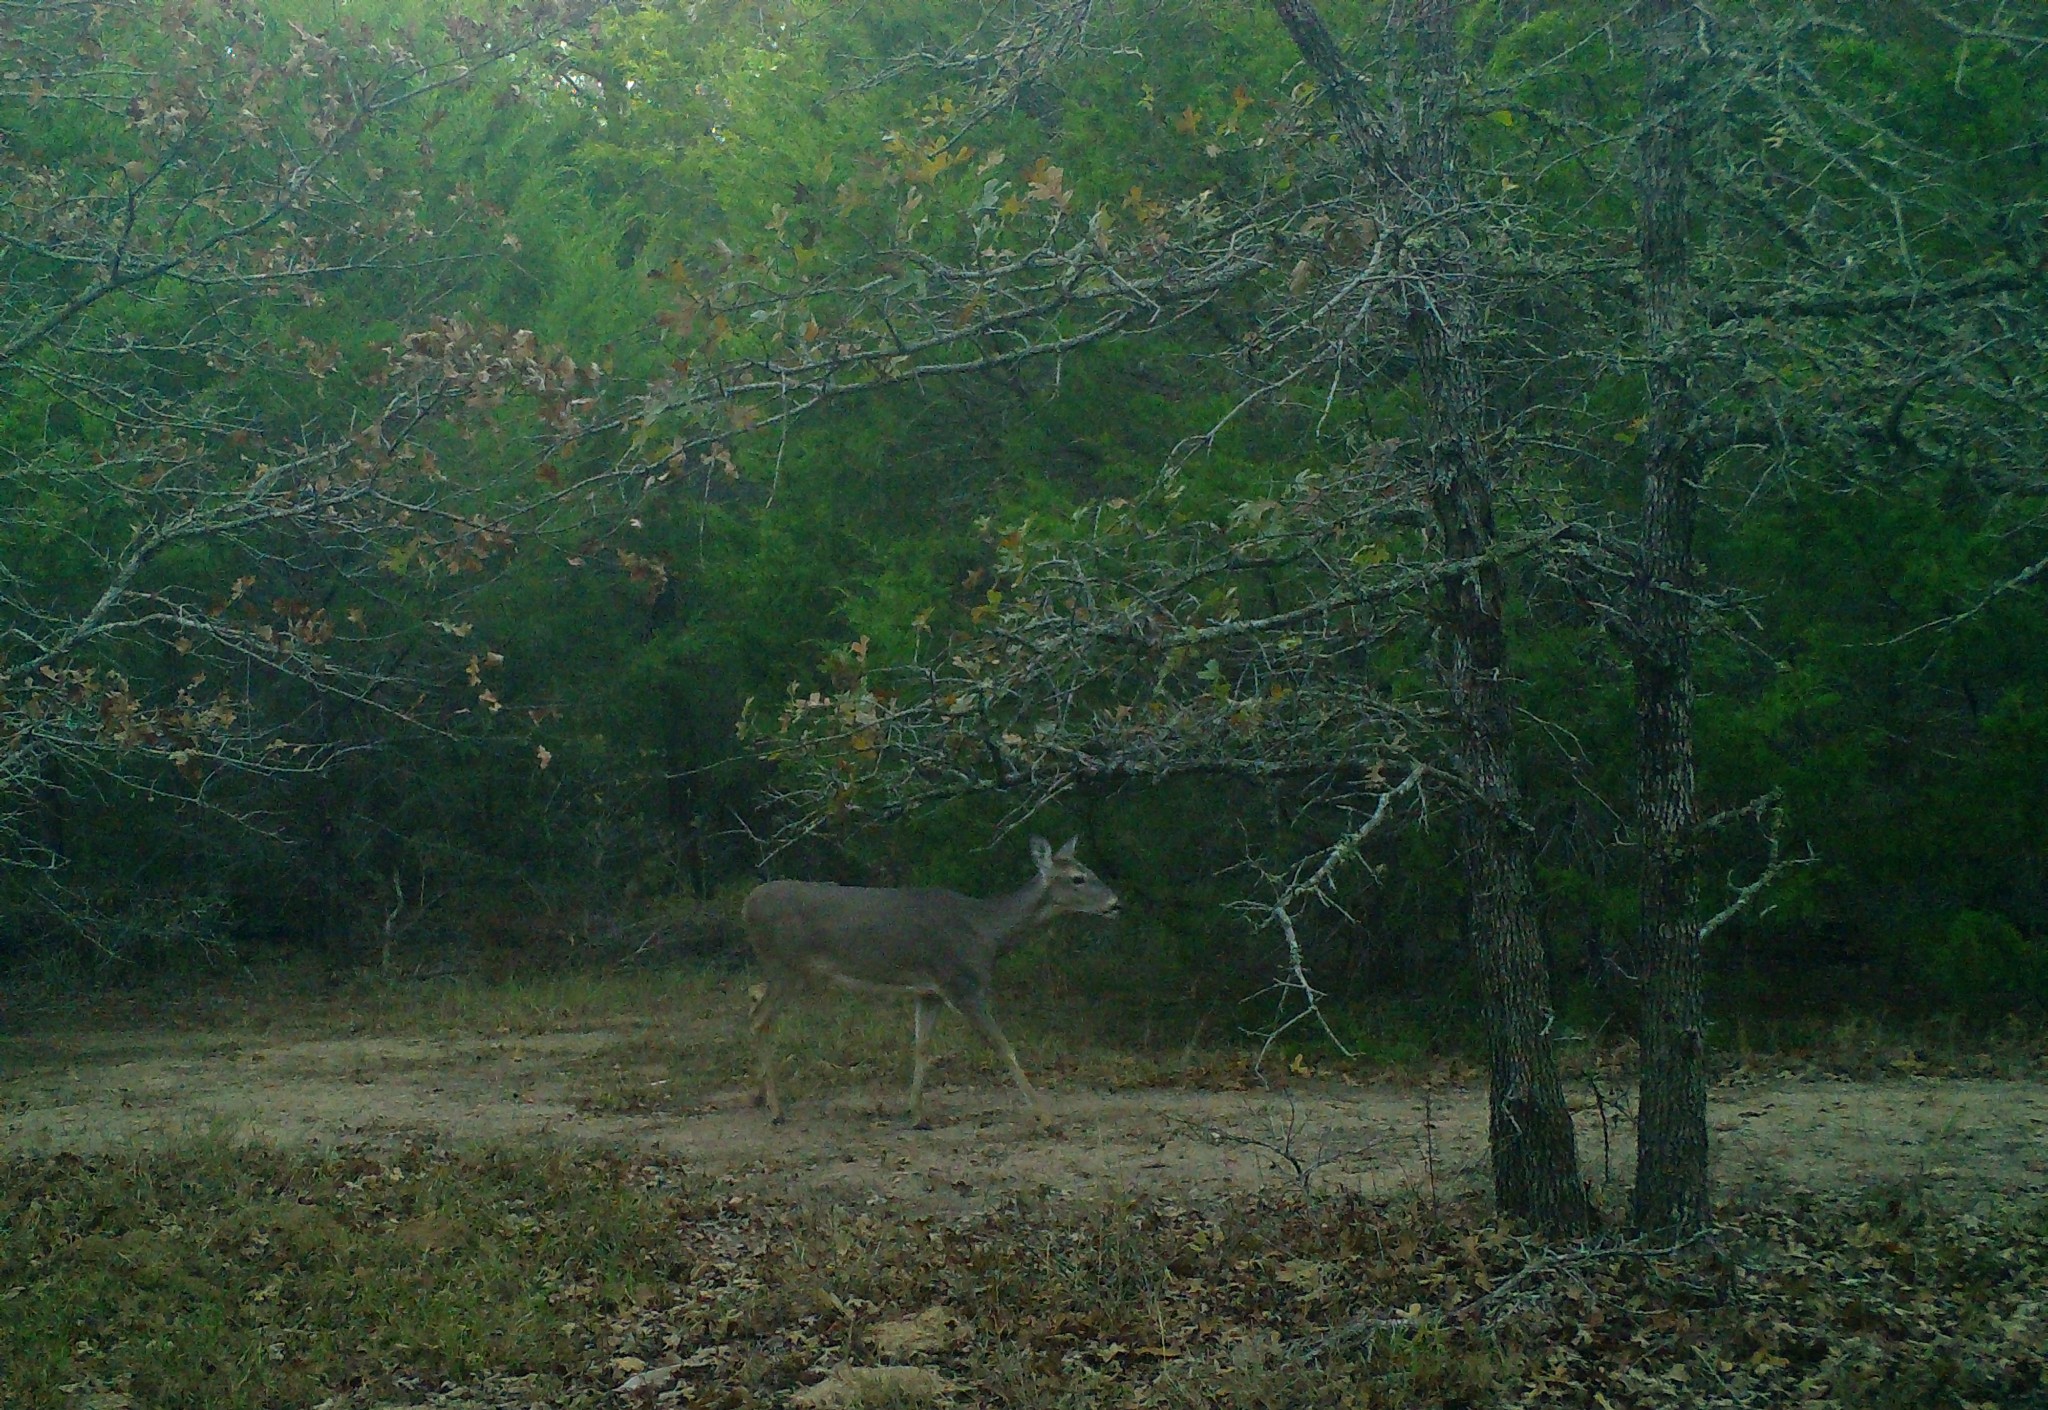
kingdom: Animalia
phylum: Chordata
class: Mammalia
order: Artiodactyla
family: Cervidae
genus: Odocoileus
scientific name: Odocoileus virginianus
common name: White-tailed deer
